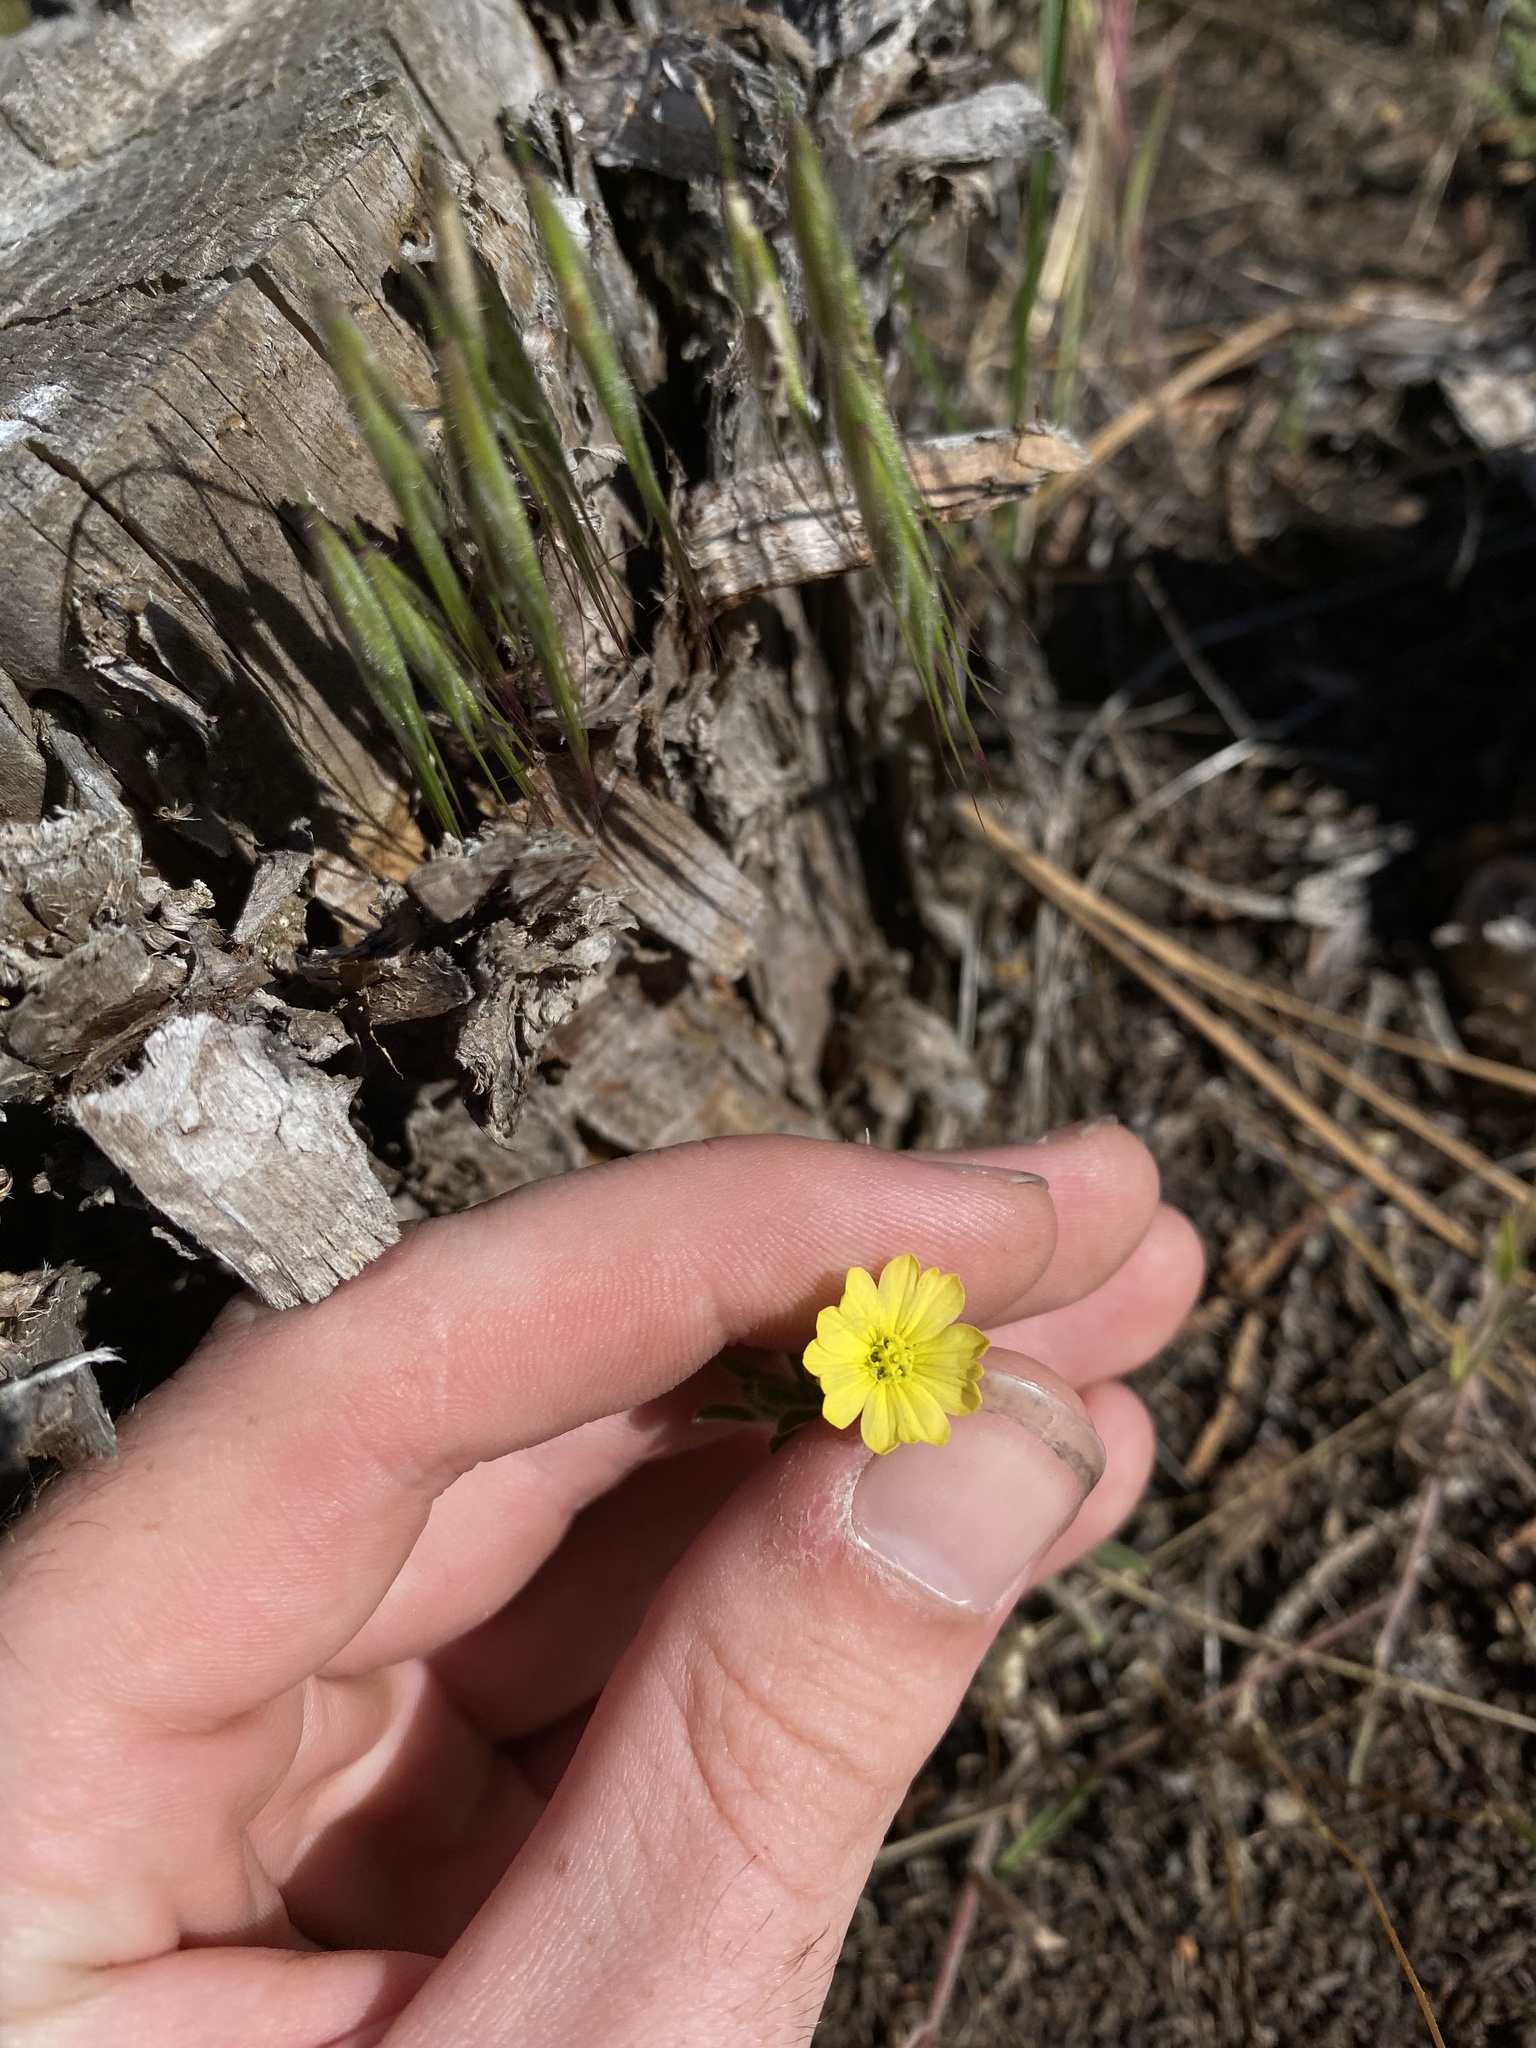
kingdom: Plantae
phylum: Tracheophyta
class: Magnoliopsida
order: Asterales
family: Asteraceae
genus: Lagophylla
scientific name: Lagophylla ramosissima
